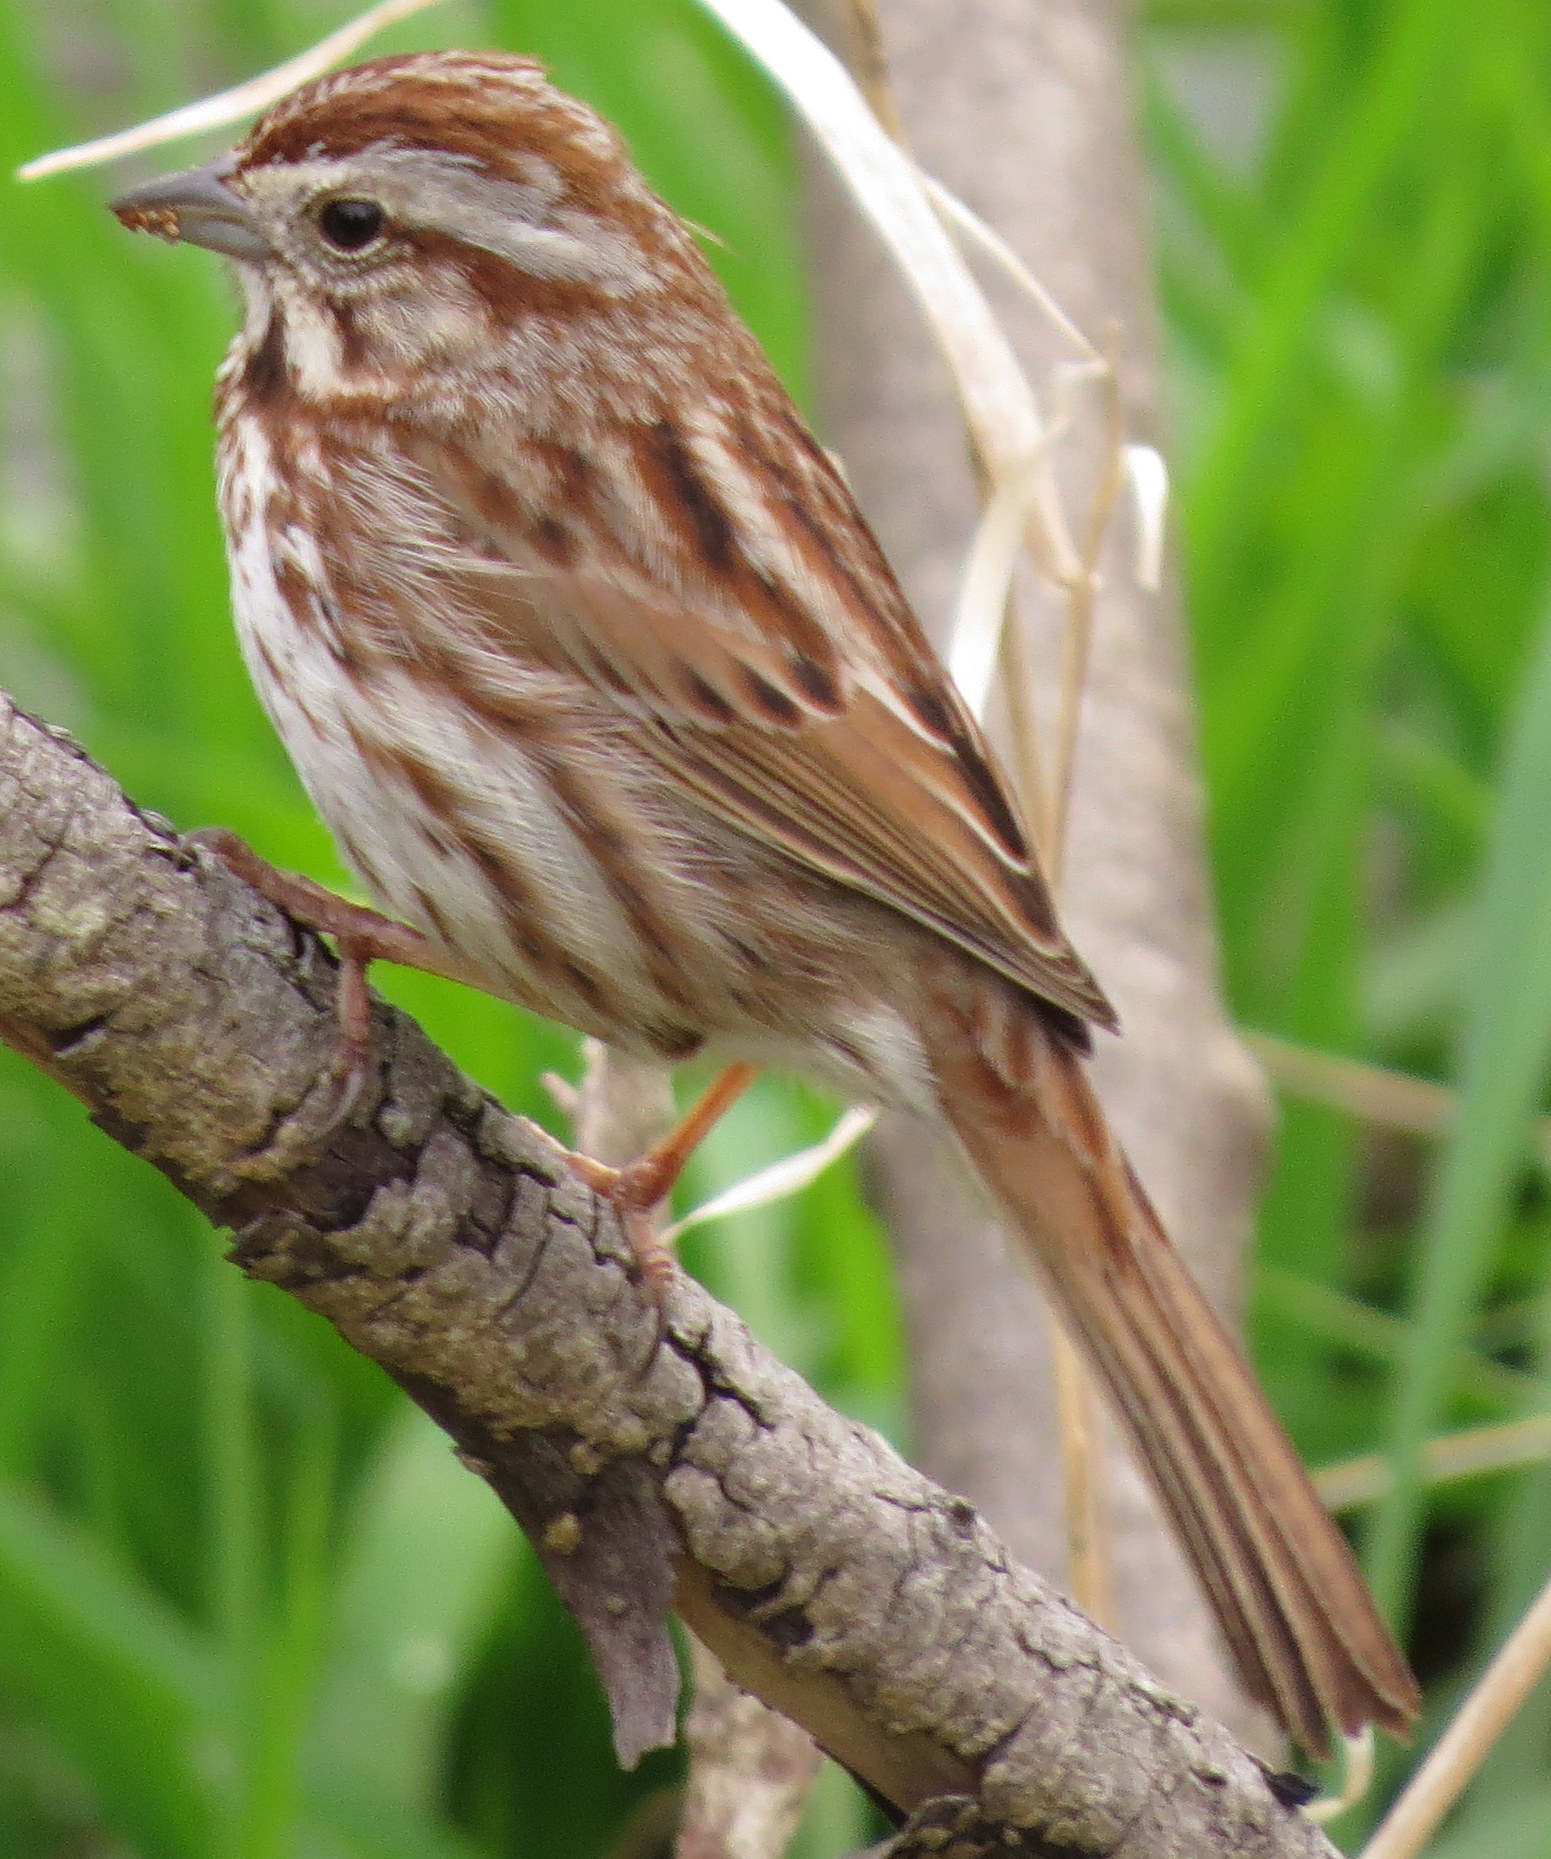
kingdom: Animalia
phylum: Chordata
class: Aves
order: Passeriformes
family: Passerellidae
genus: Melospiza
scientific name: Melospiza melodia
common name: Song sparrow
